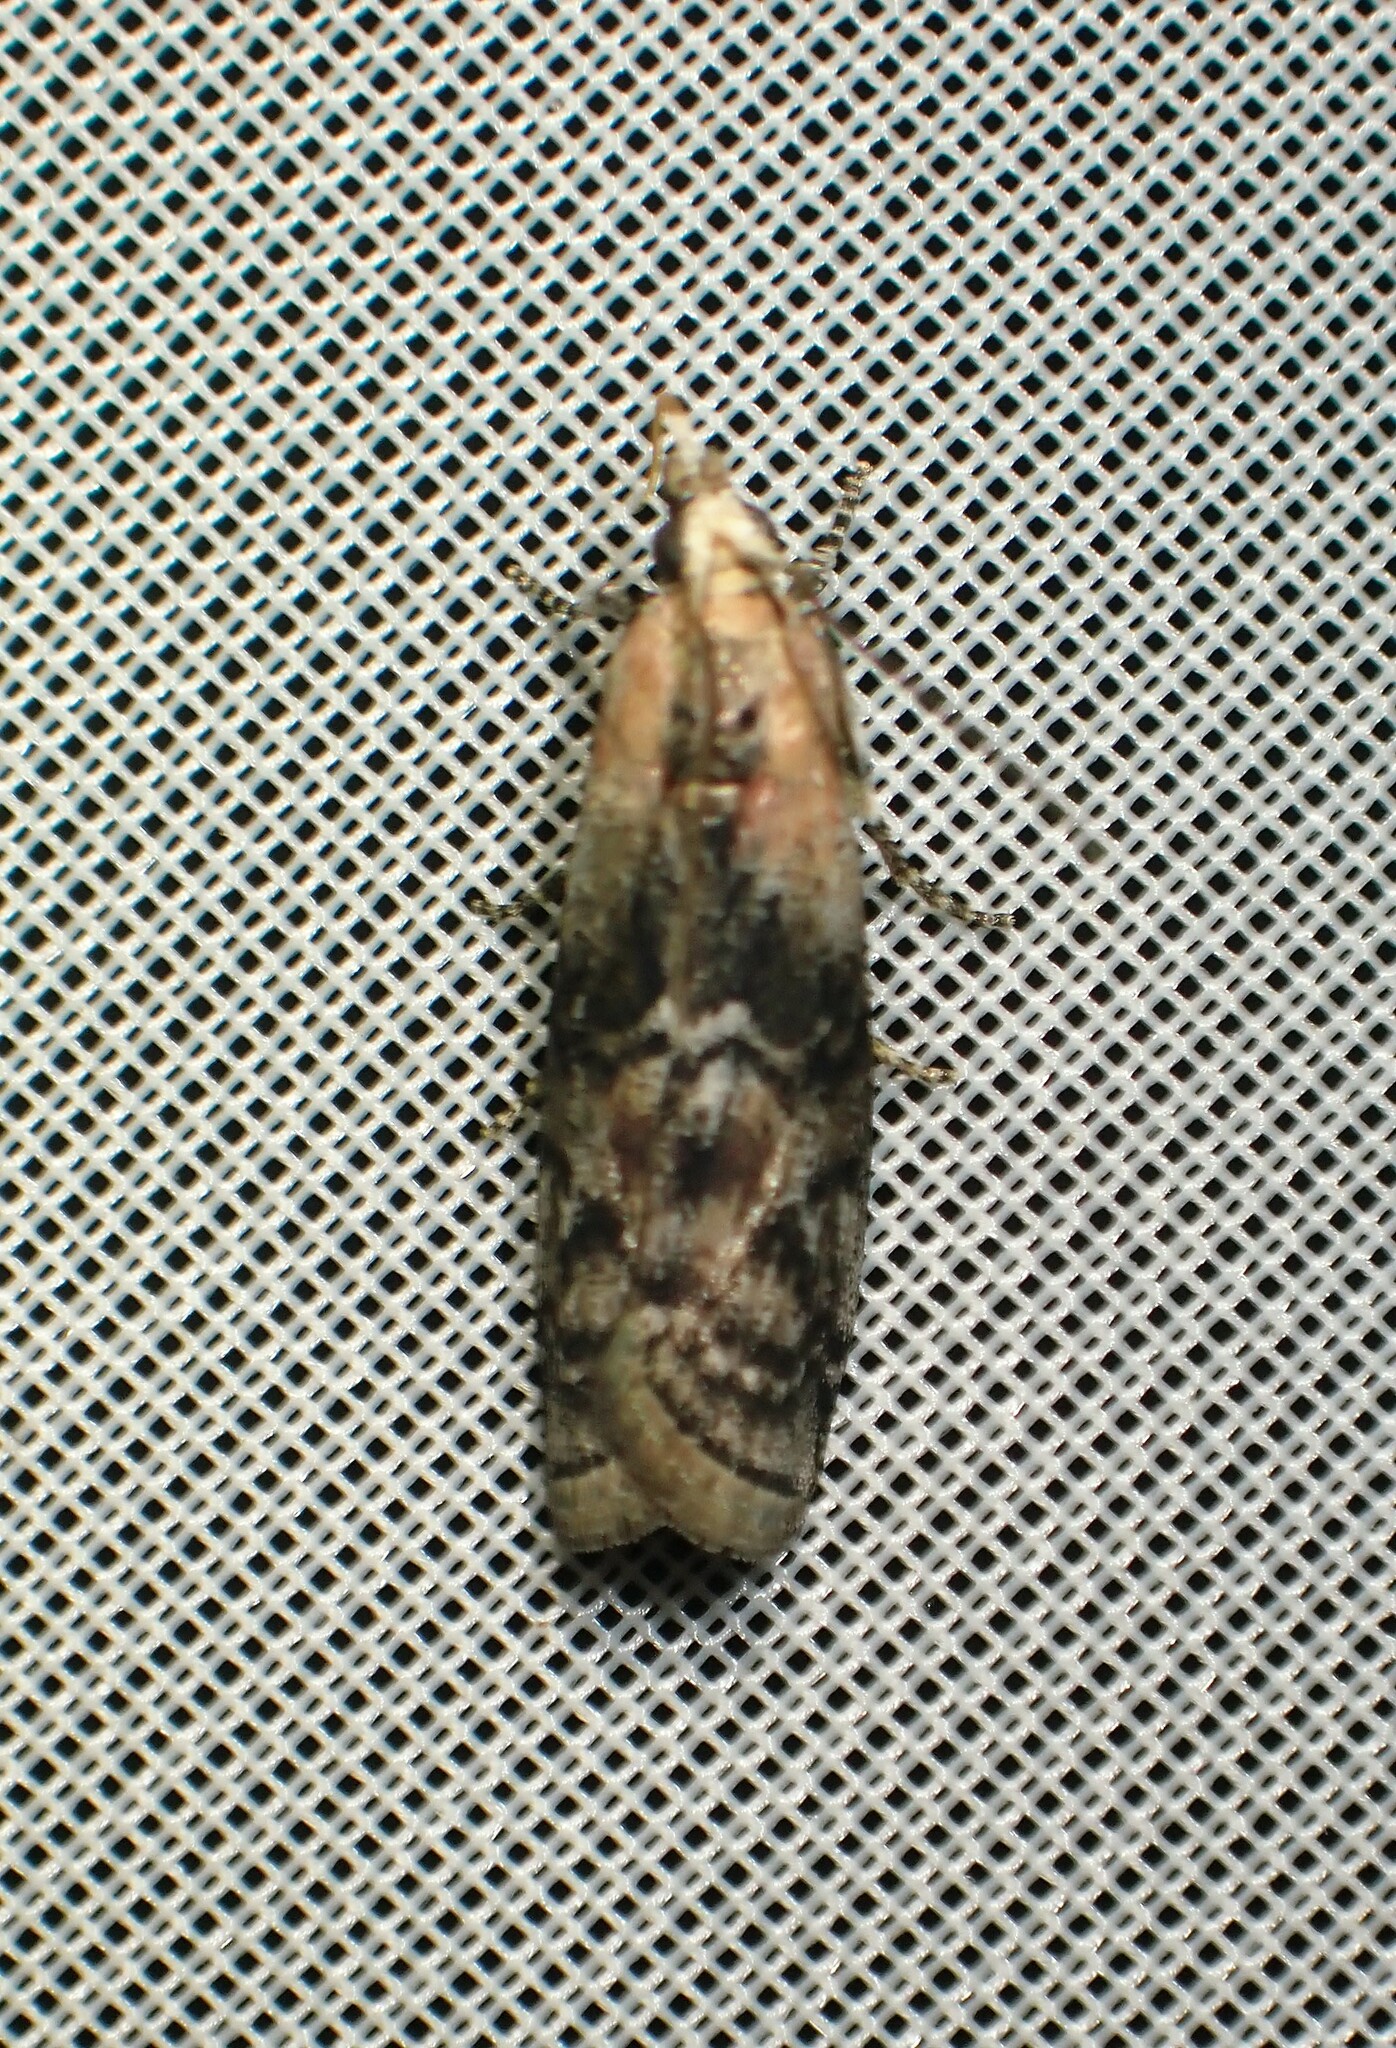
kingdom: Animalia
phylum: Arthropoda
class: Insecta
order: Lepidoptera
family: Pyralidae
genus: Glyptocera
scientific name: Glyptocera consobrinella
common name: Viburnum glyptocera moth
